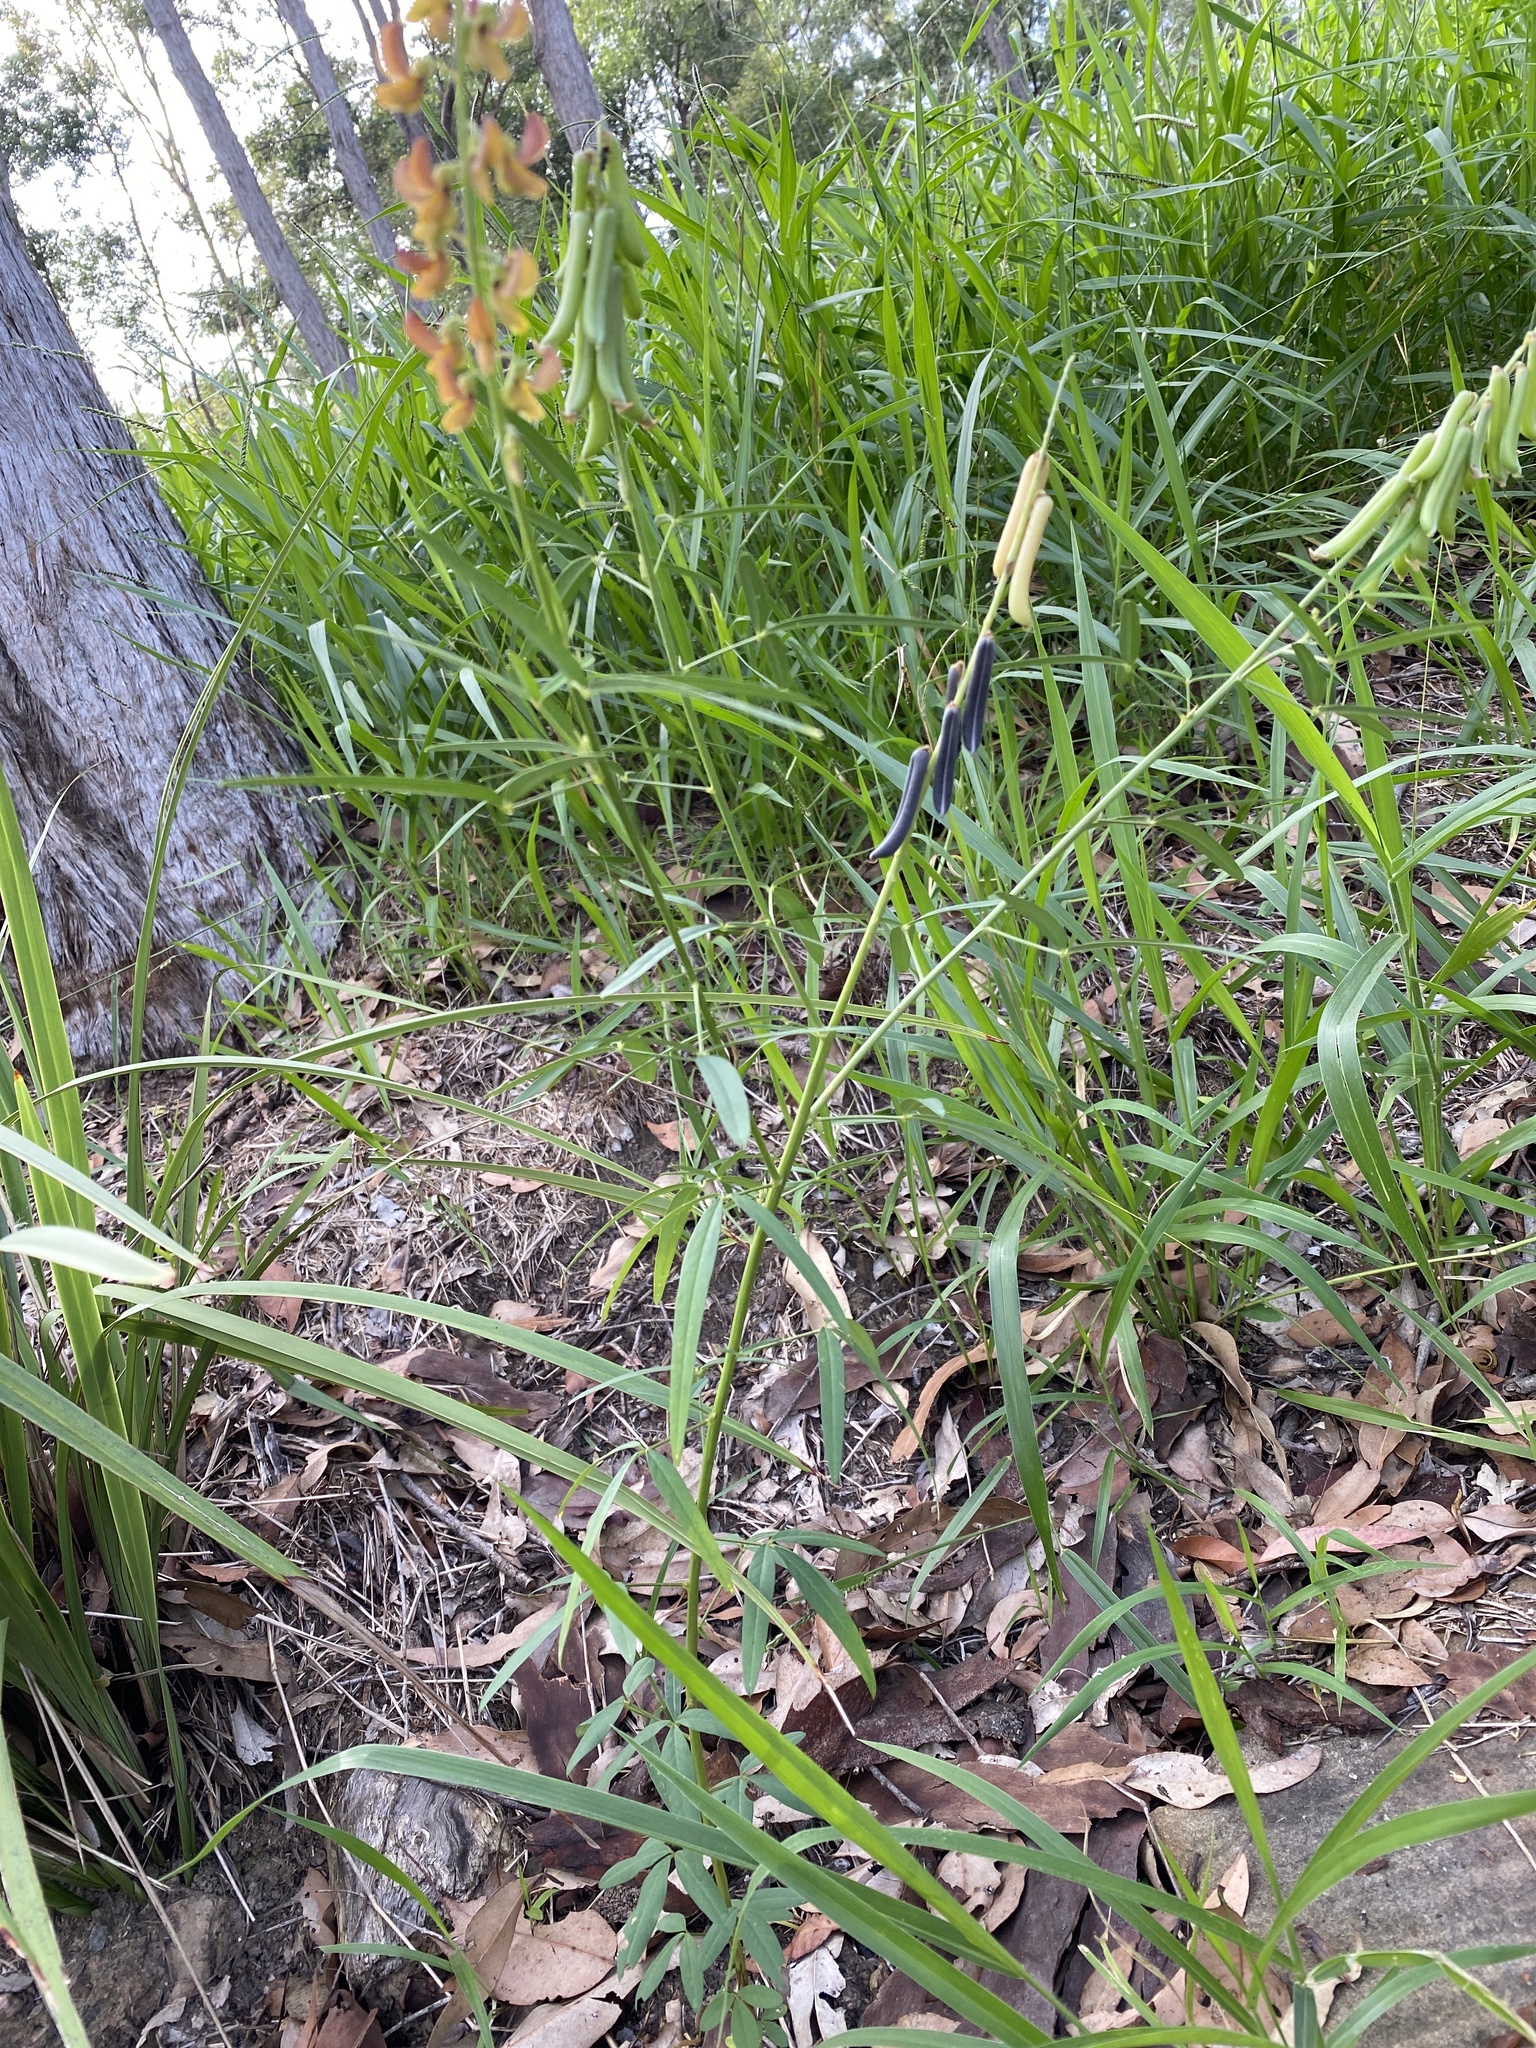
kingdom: Plantae
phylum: Tracheophyta
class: Magnoliopsida
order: Fabales
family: Fabaceae
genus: Crotalaria
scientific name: Crotalaria lanceolata
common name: Lanceleaf rattlebox
